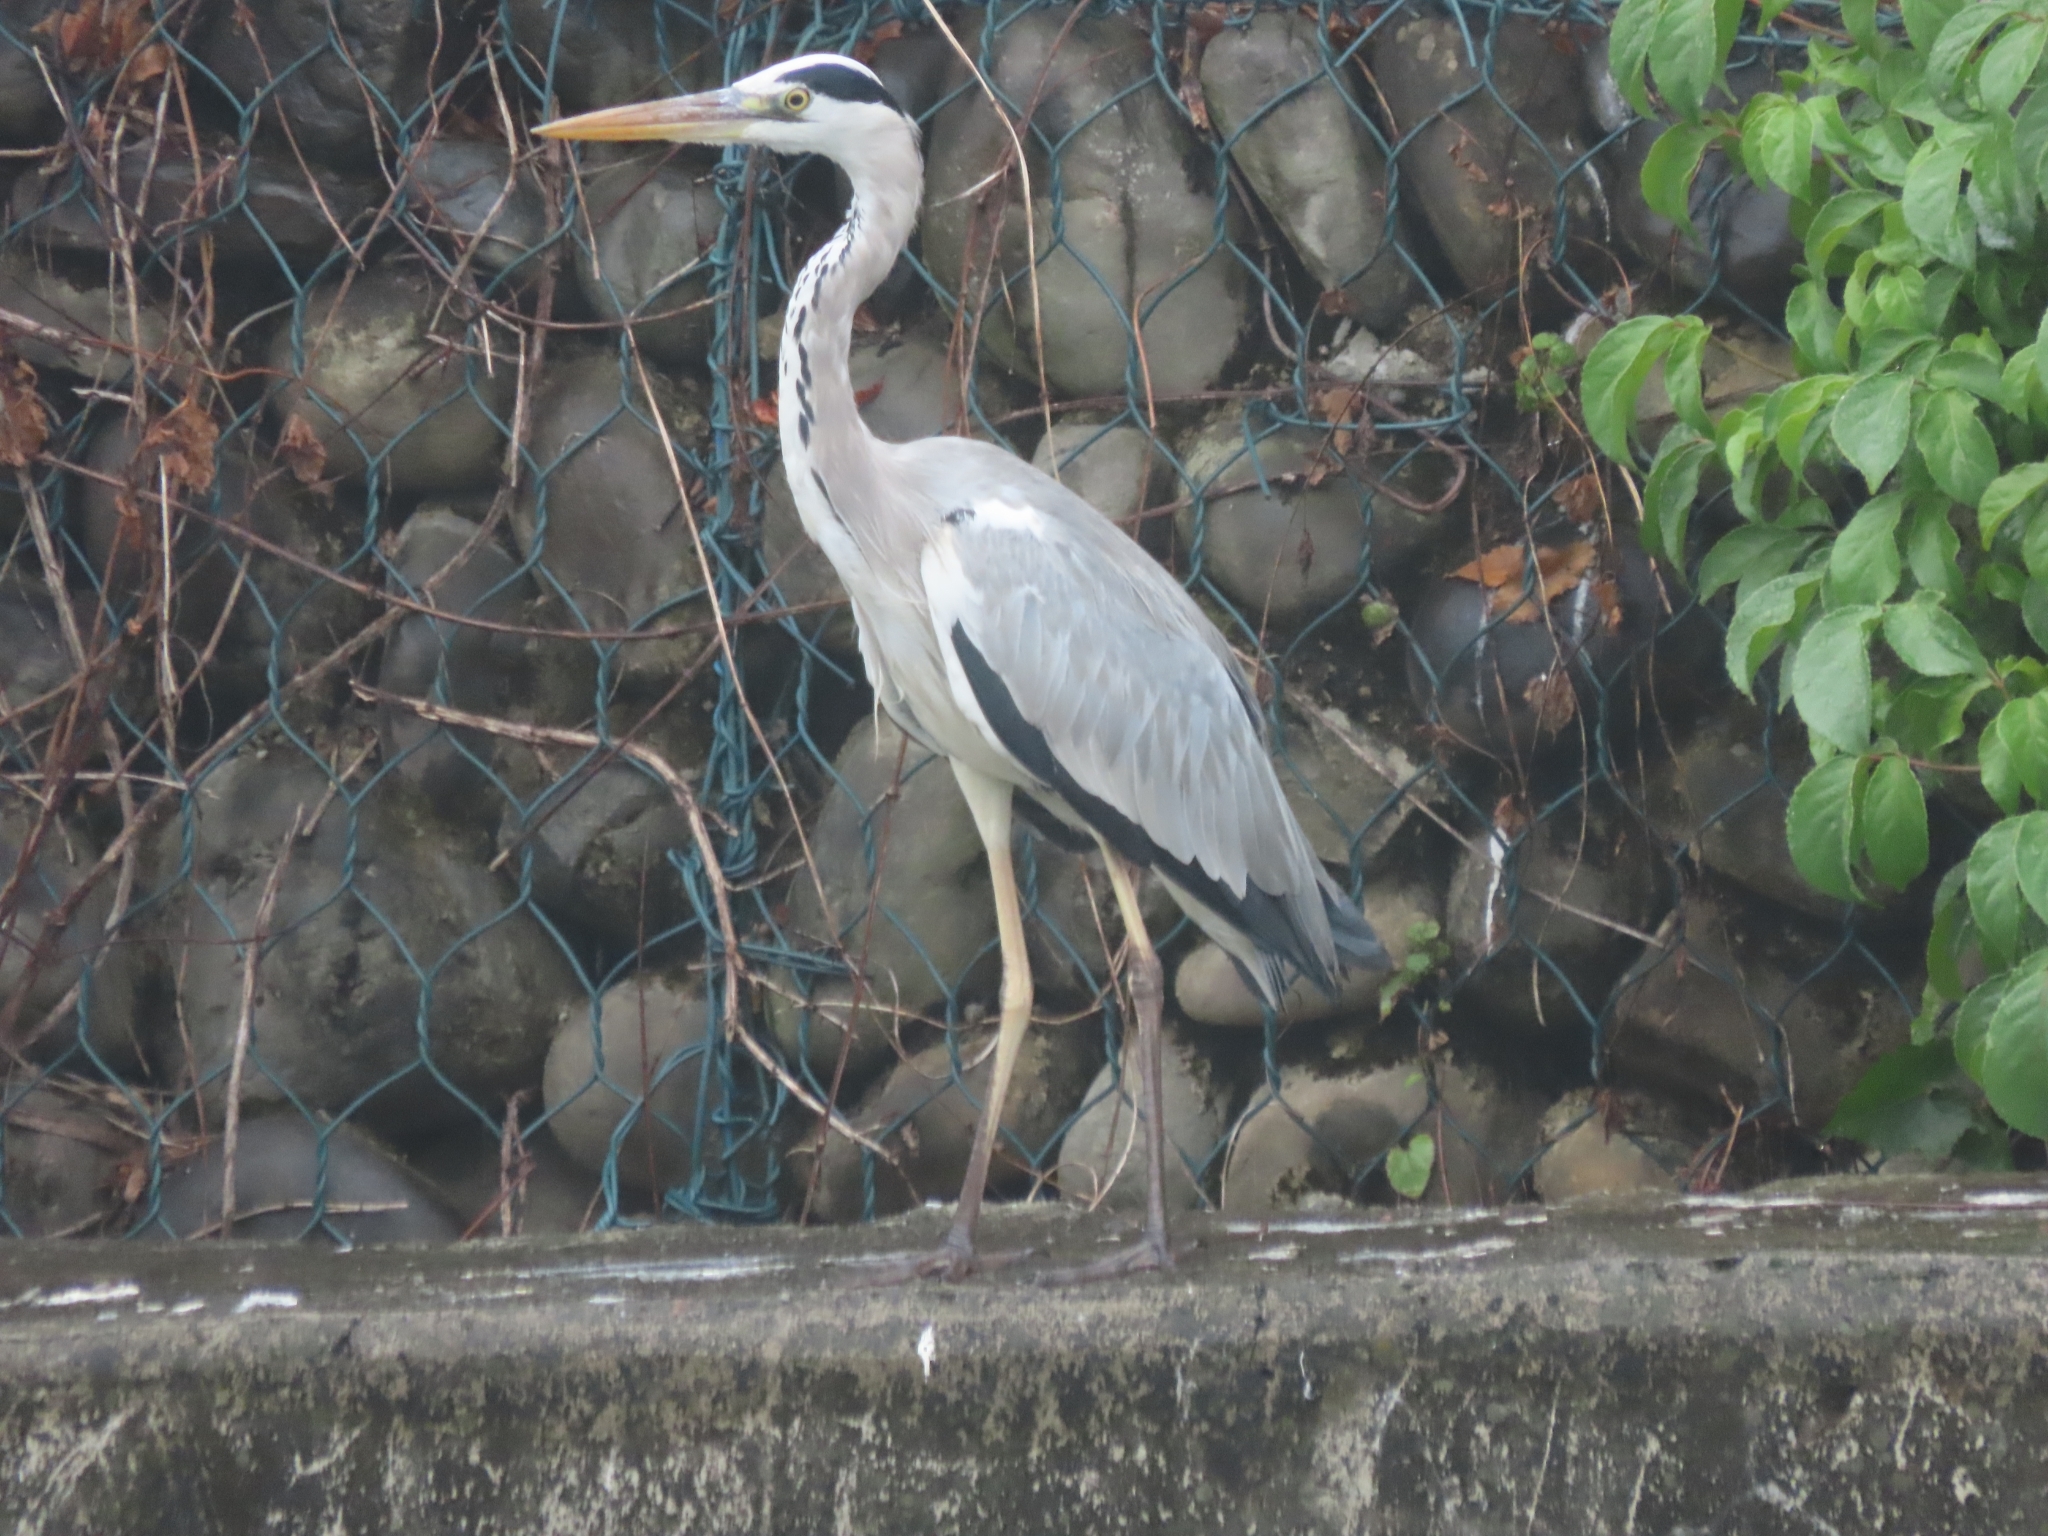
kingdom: Animalia
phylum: Chordata
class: Aves
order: Pelecaniformes
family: Ardeidae
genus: Ardea
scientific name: Ardea cinerea
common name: Grey heron
